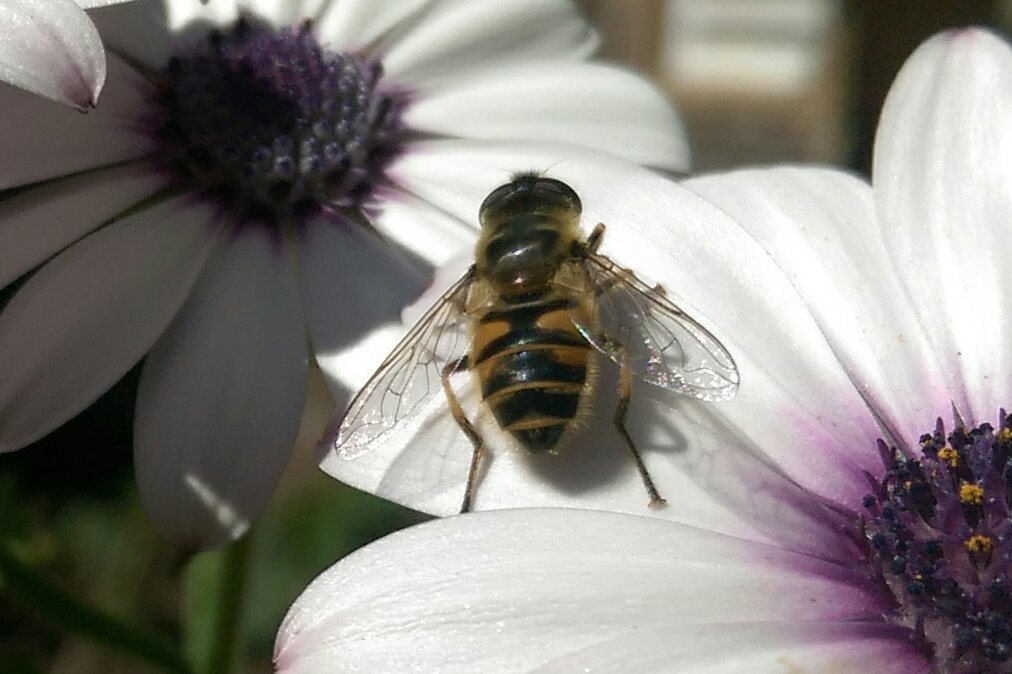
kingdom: Animalia
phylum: Arthropoda
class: Insecta
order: Diptera
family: Syrphidae
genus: Myathropa
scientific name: Myathropa florea
